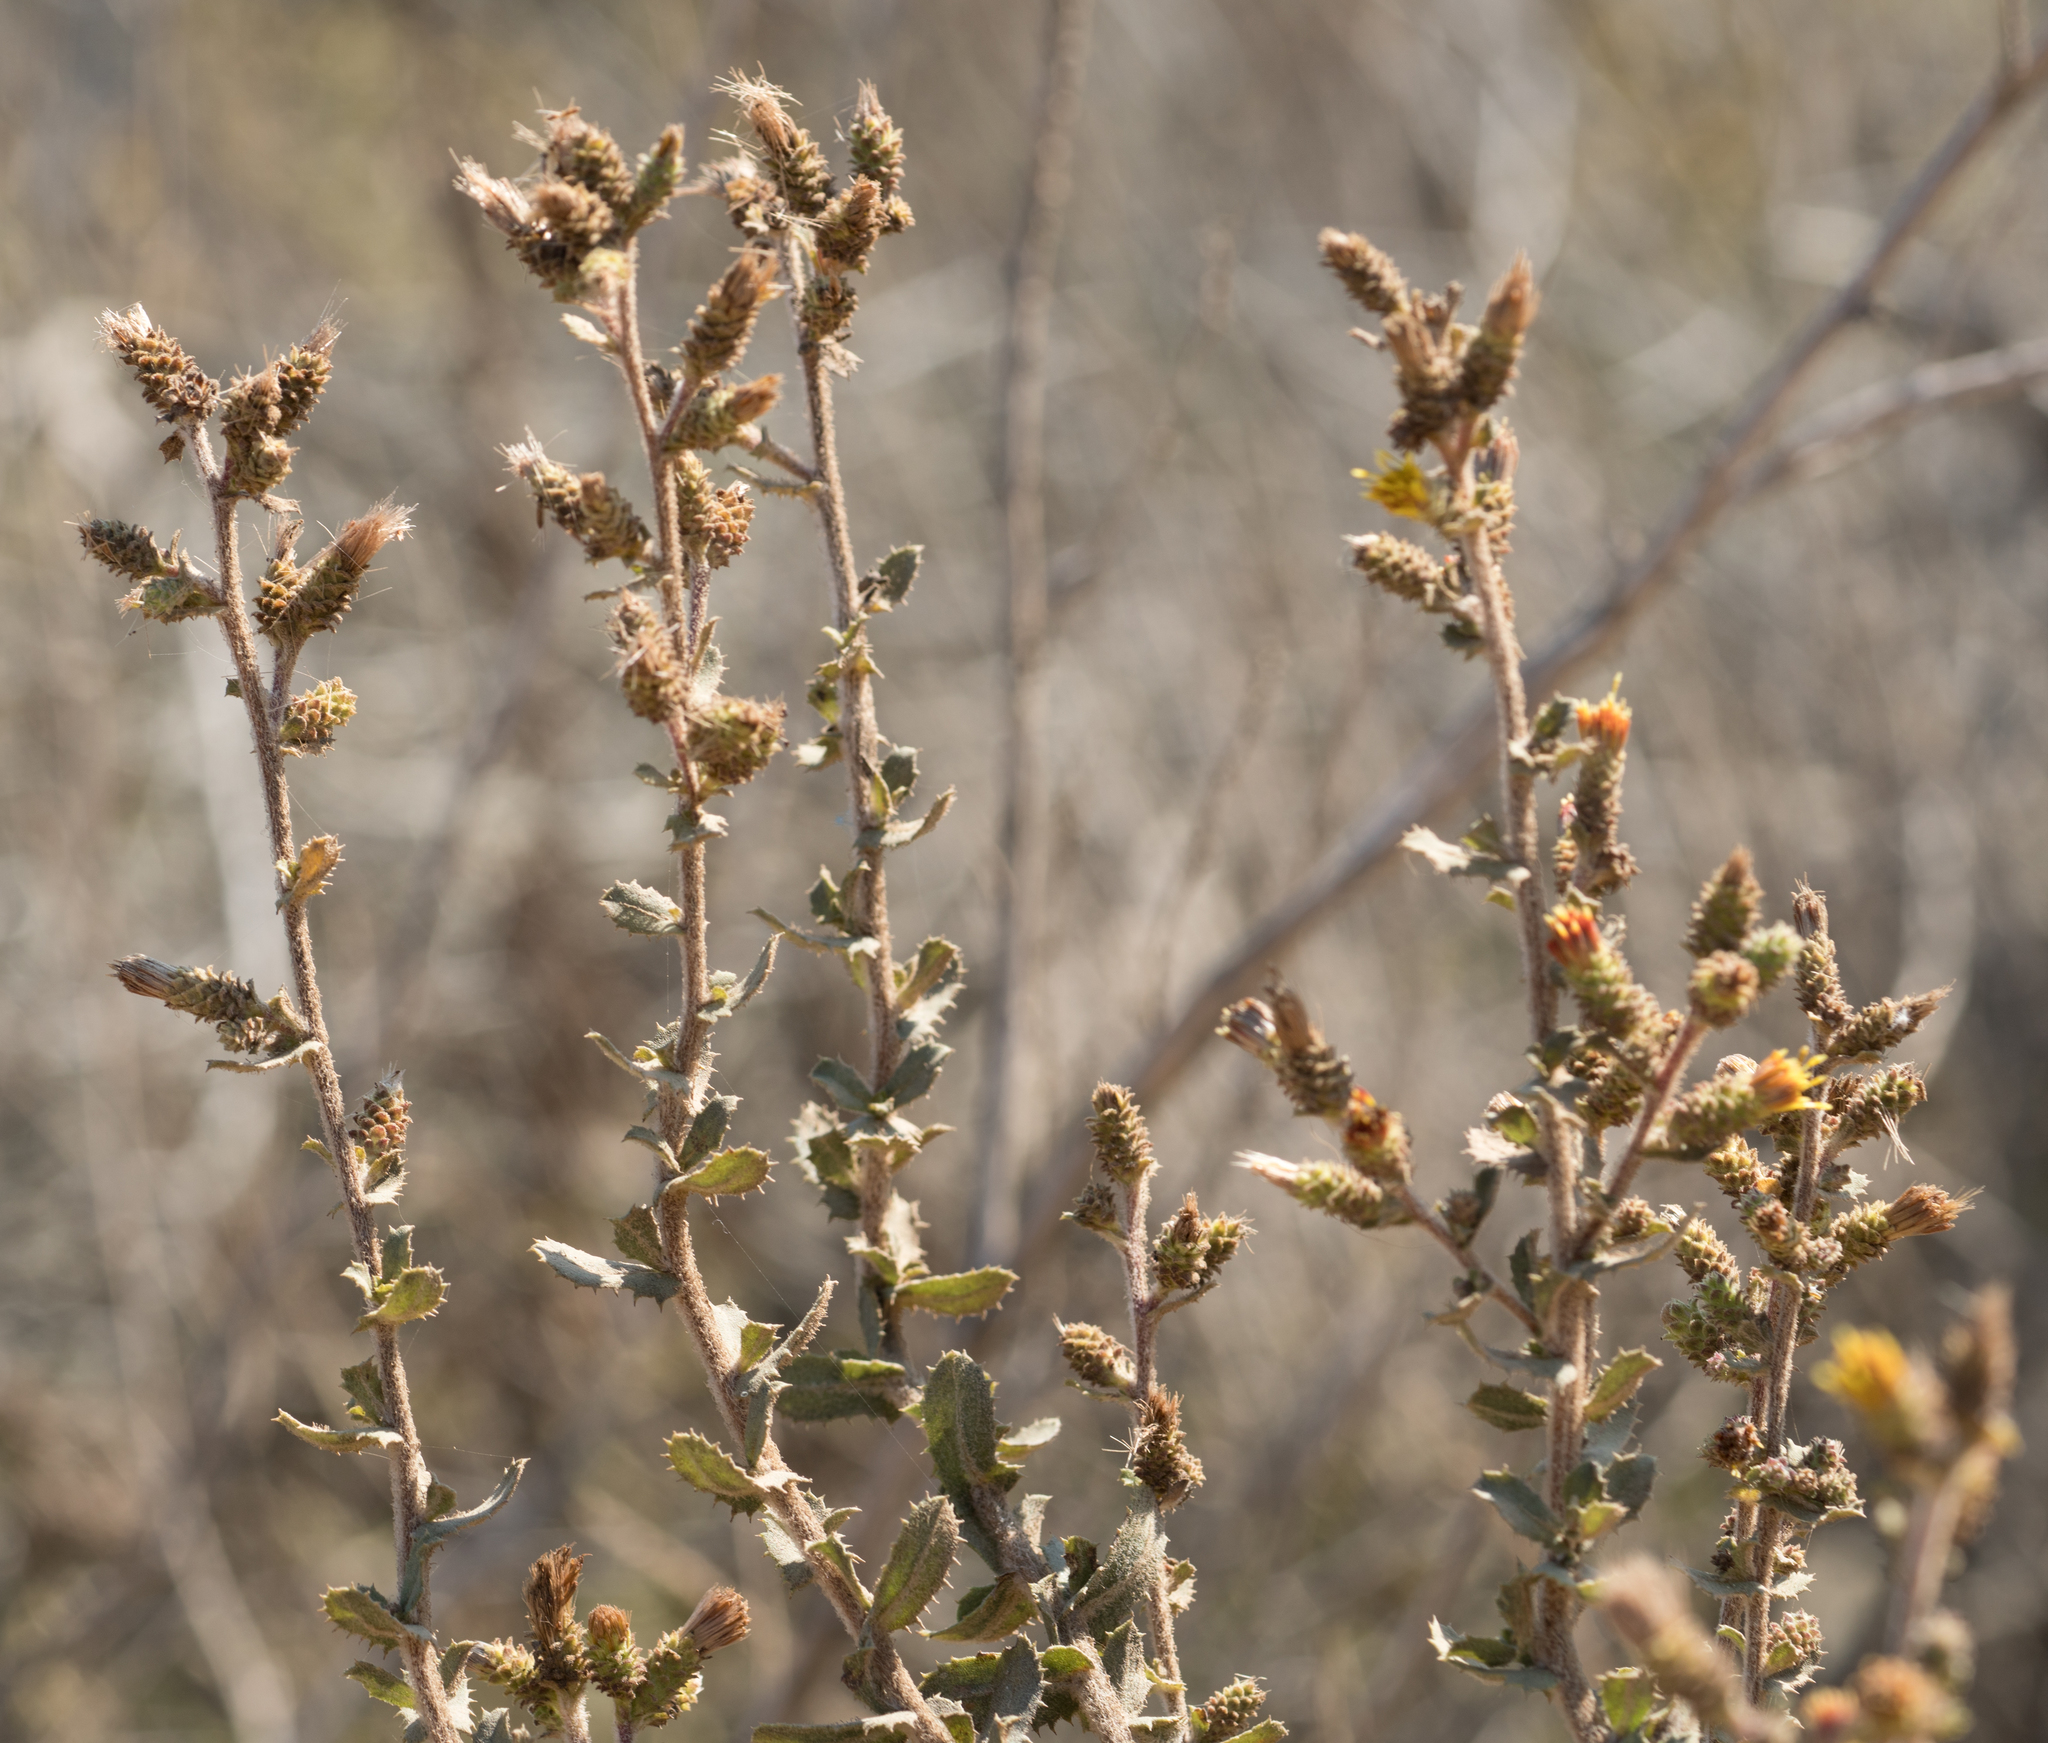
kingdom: Plantae
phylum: Tracheophyta
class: Magnoliopsida
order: Asterales
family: Asteraceae
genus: Hazardia
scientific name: Hazardia squarrosa
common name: Saw-tooth goldenbush
